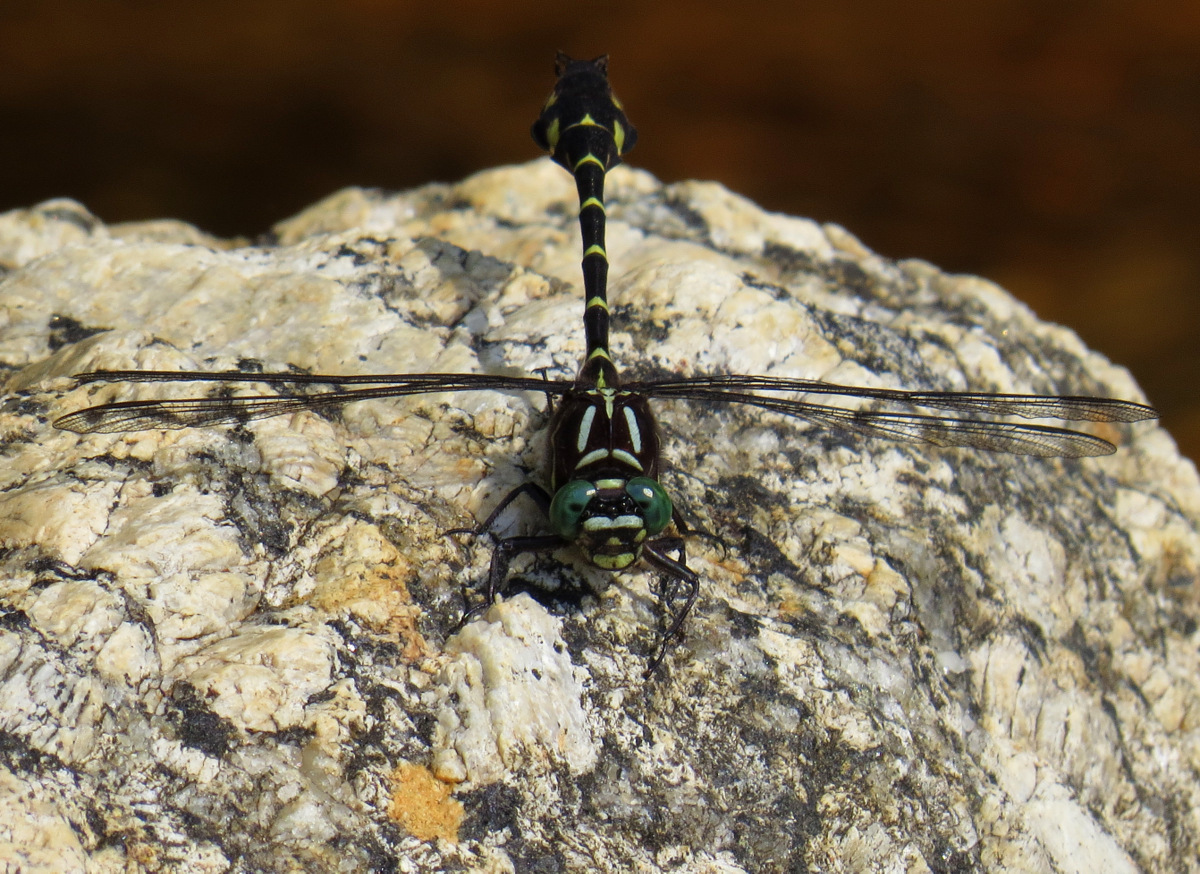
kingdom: Animalia
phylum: Arthropoda
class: Insecta
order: Odonata
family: Gomphidae
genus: Stylurus
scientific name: Stylurus scudderi
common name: Zebra clubtail
